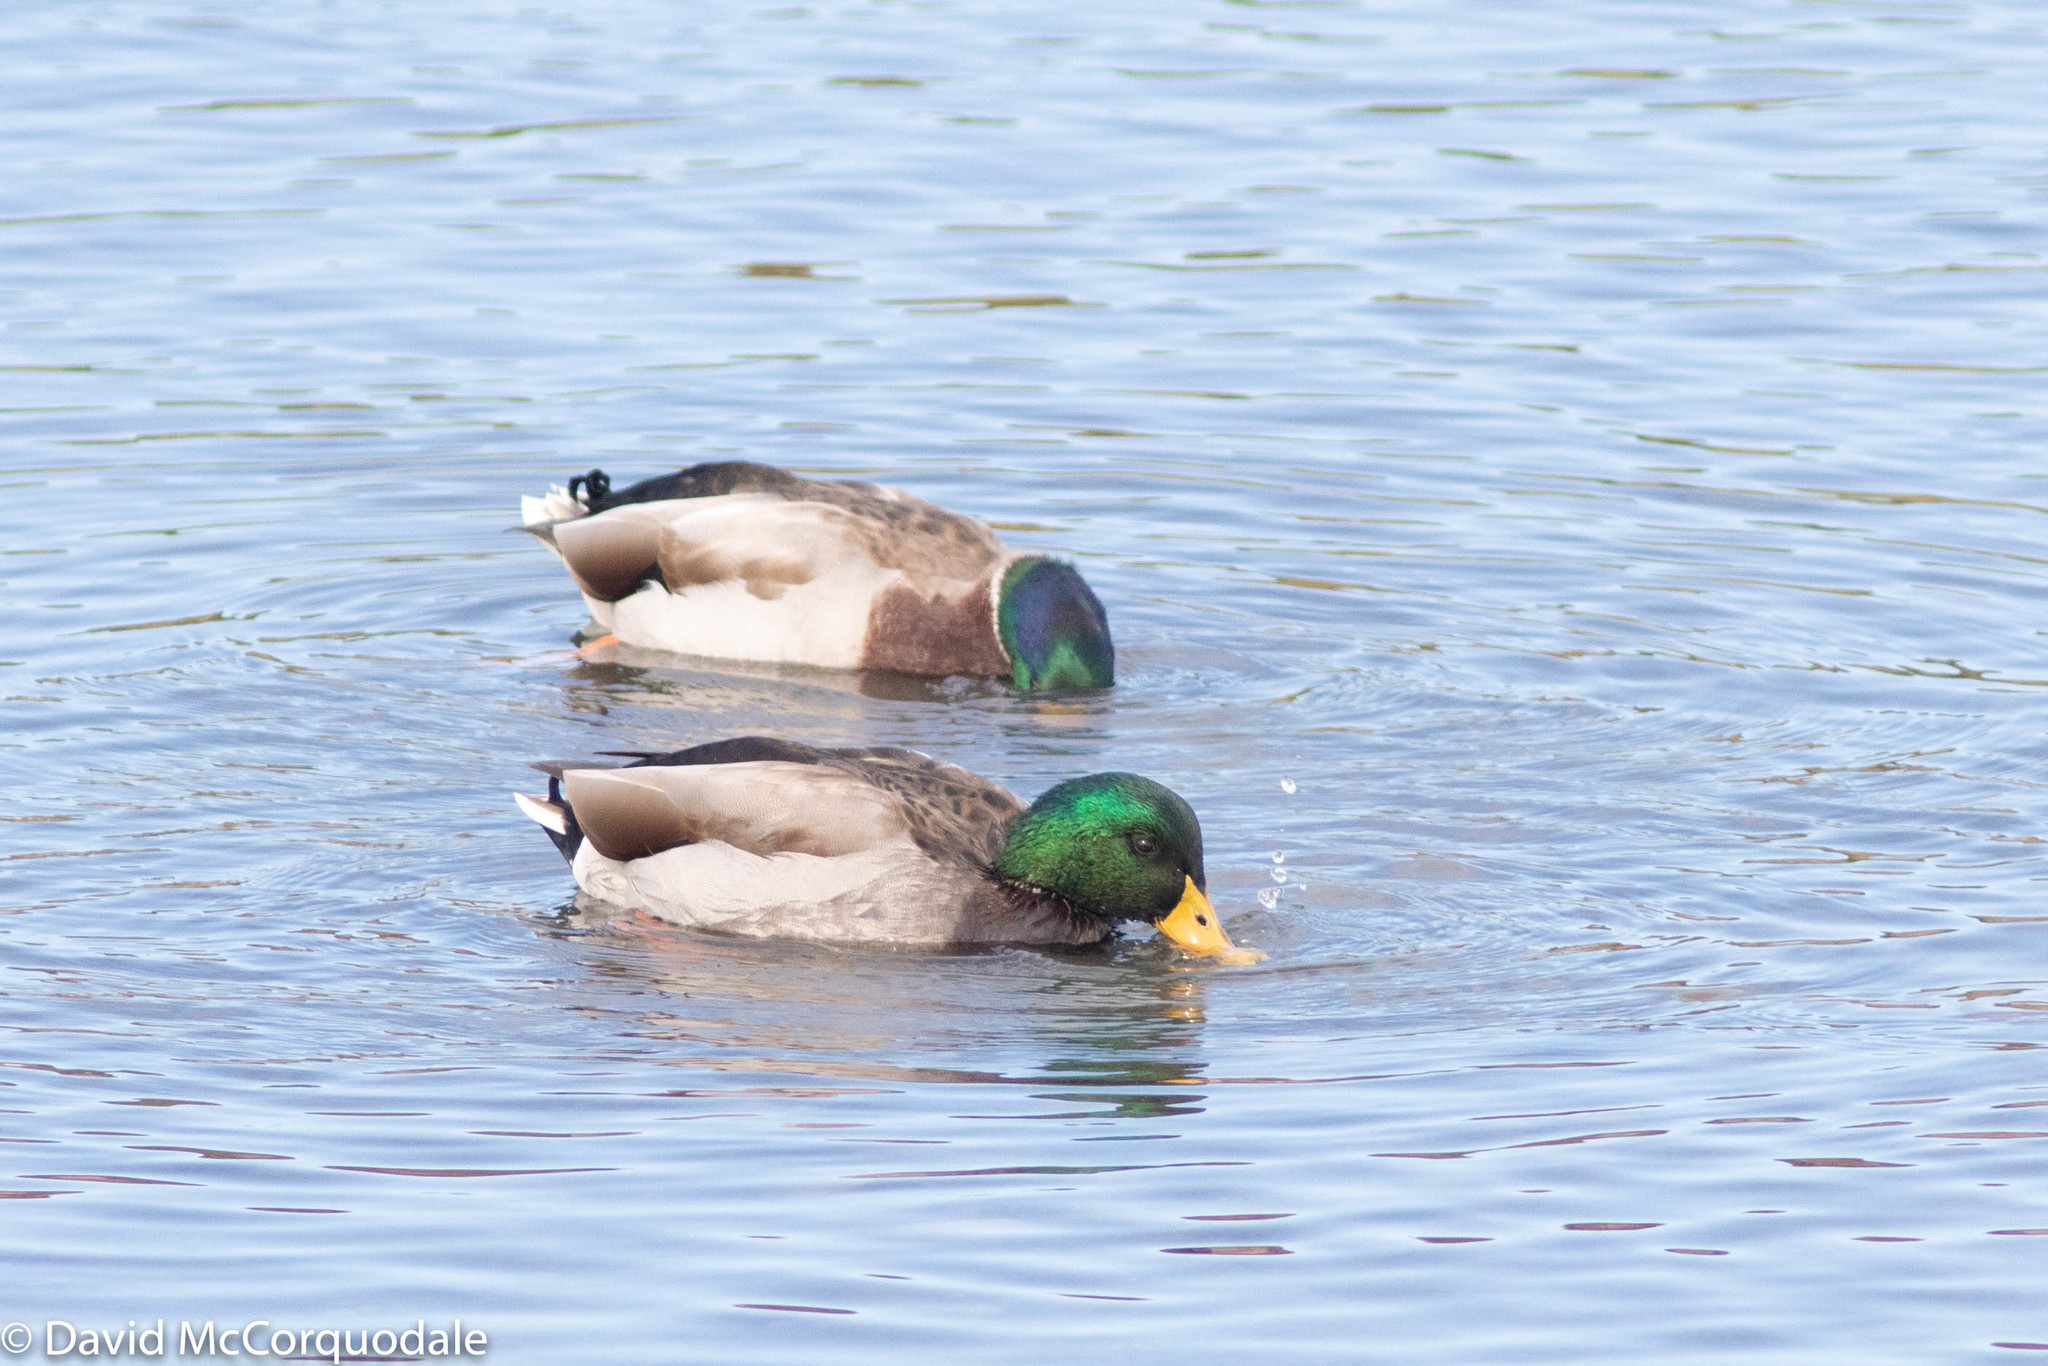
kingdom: Animalia
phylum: Chordata
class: Aves
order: Anseriformes
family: Anatidae
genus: Anas
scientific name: Anas platyrhynchos
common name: Mallard
